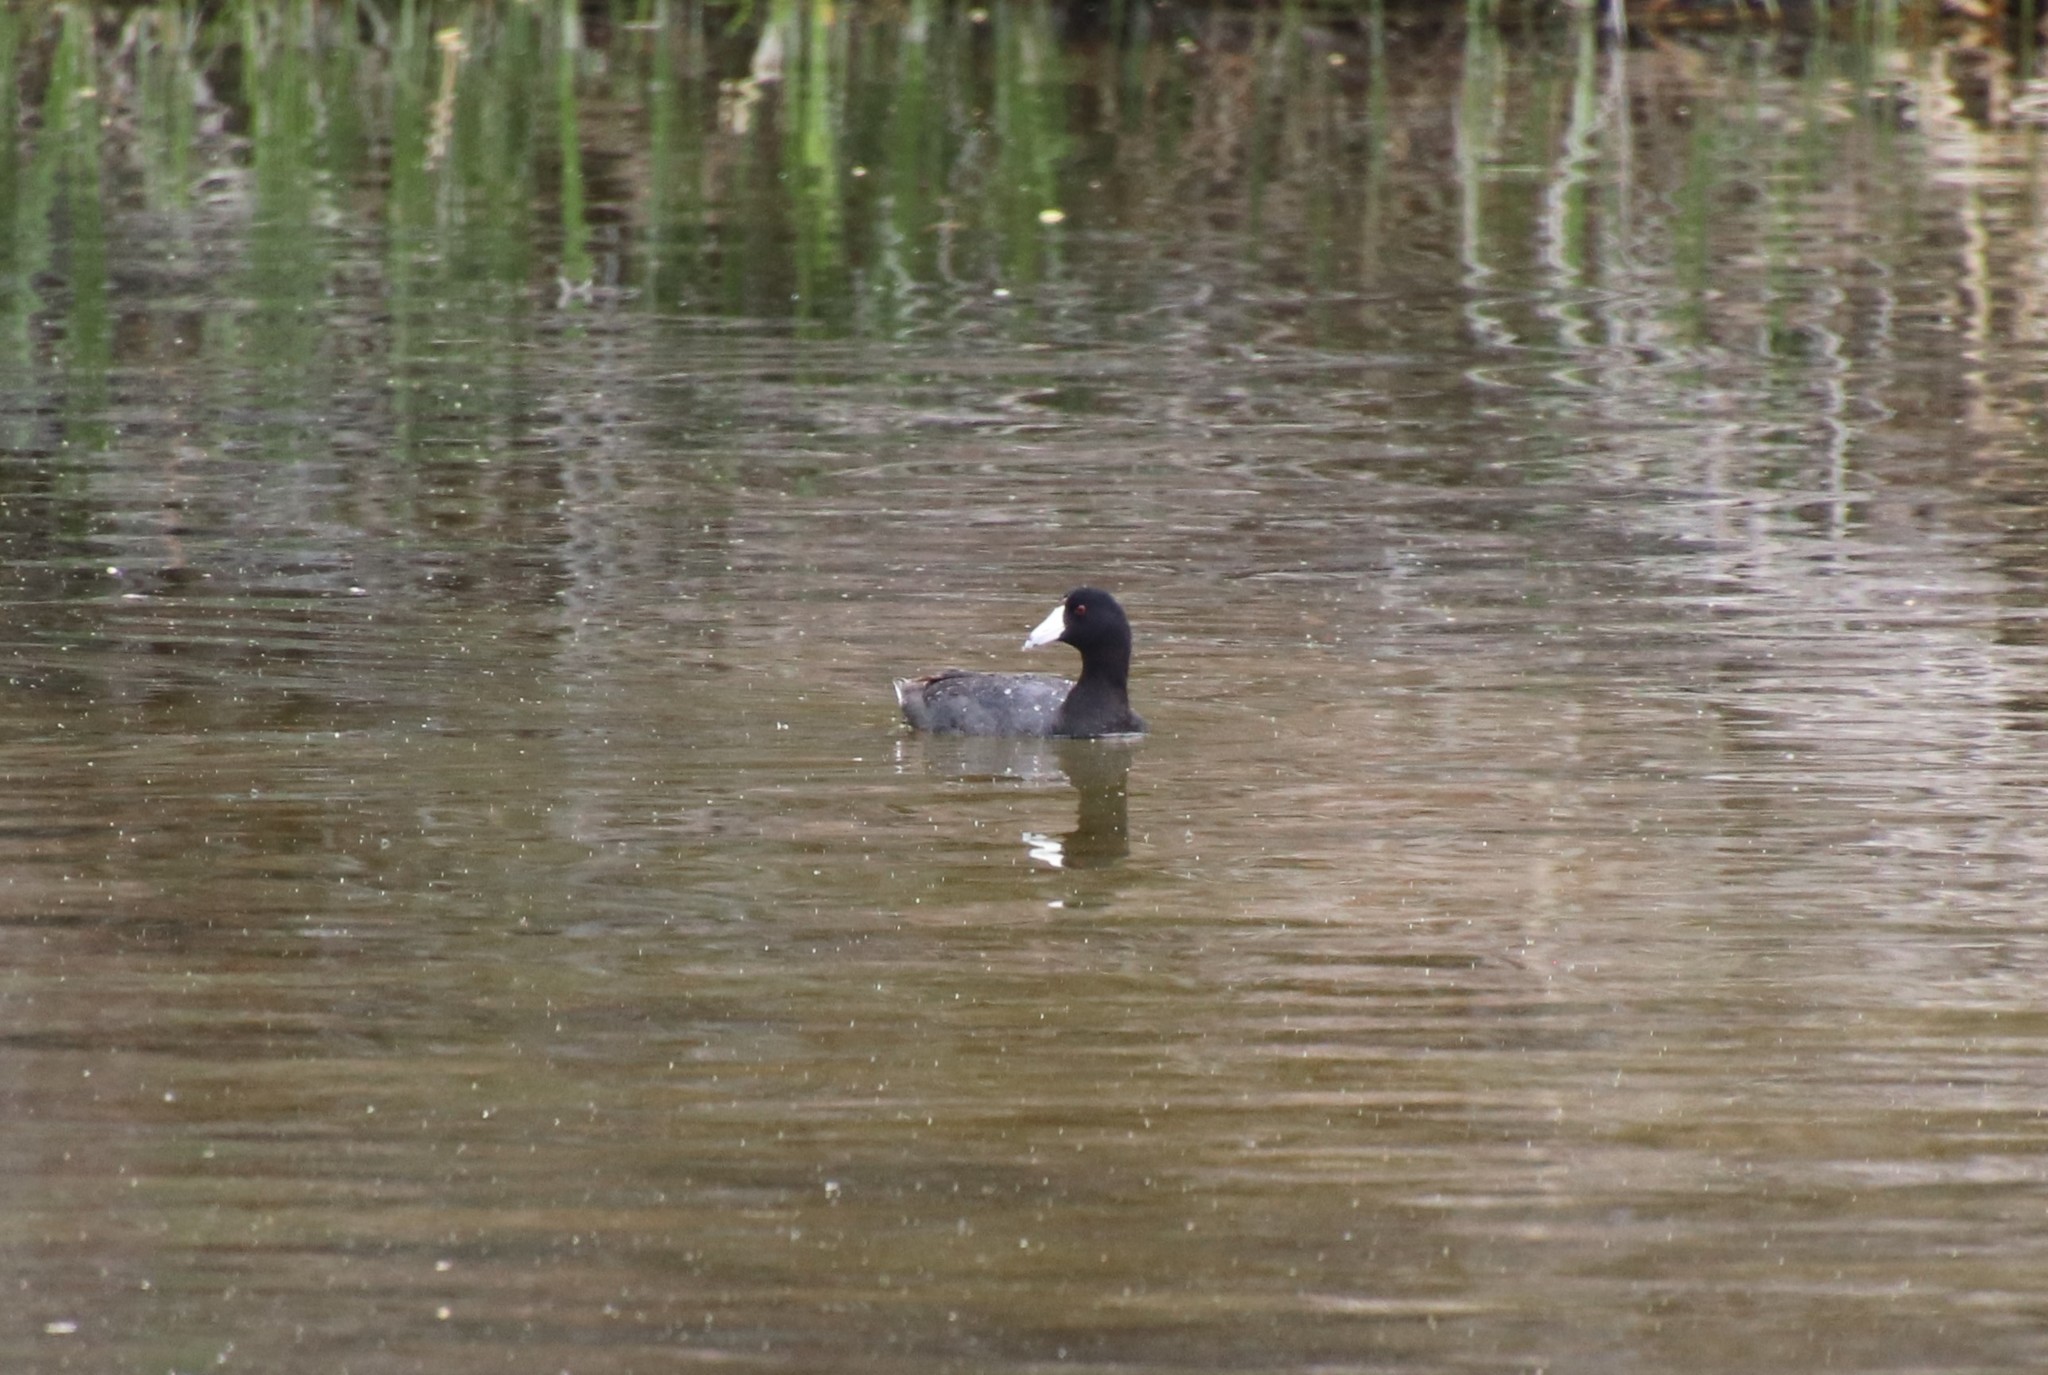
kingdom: Animalia
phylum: Chordata
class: Aves
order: Gruiformes
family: Rallidae
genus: Fulica
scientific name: Fulica americana
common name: American coot
